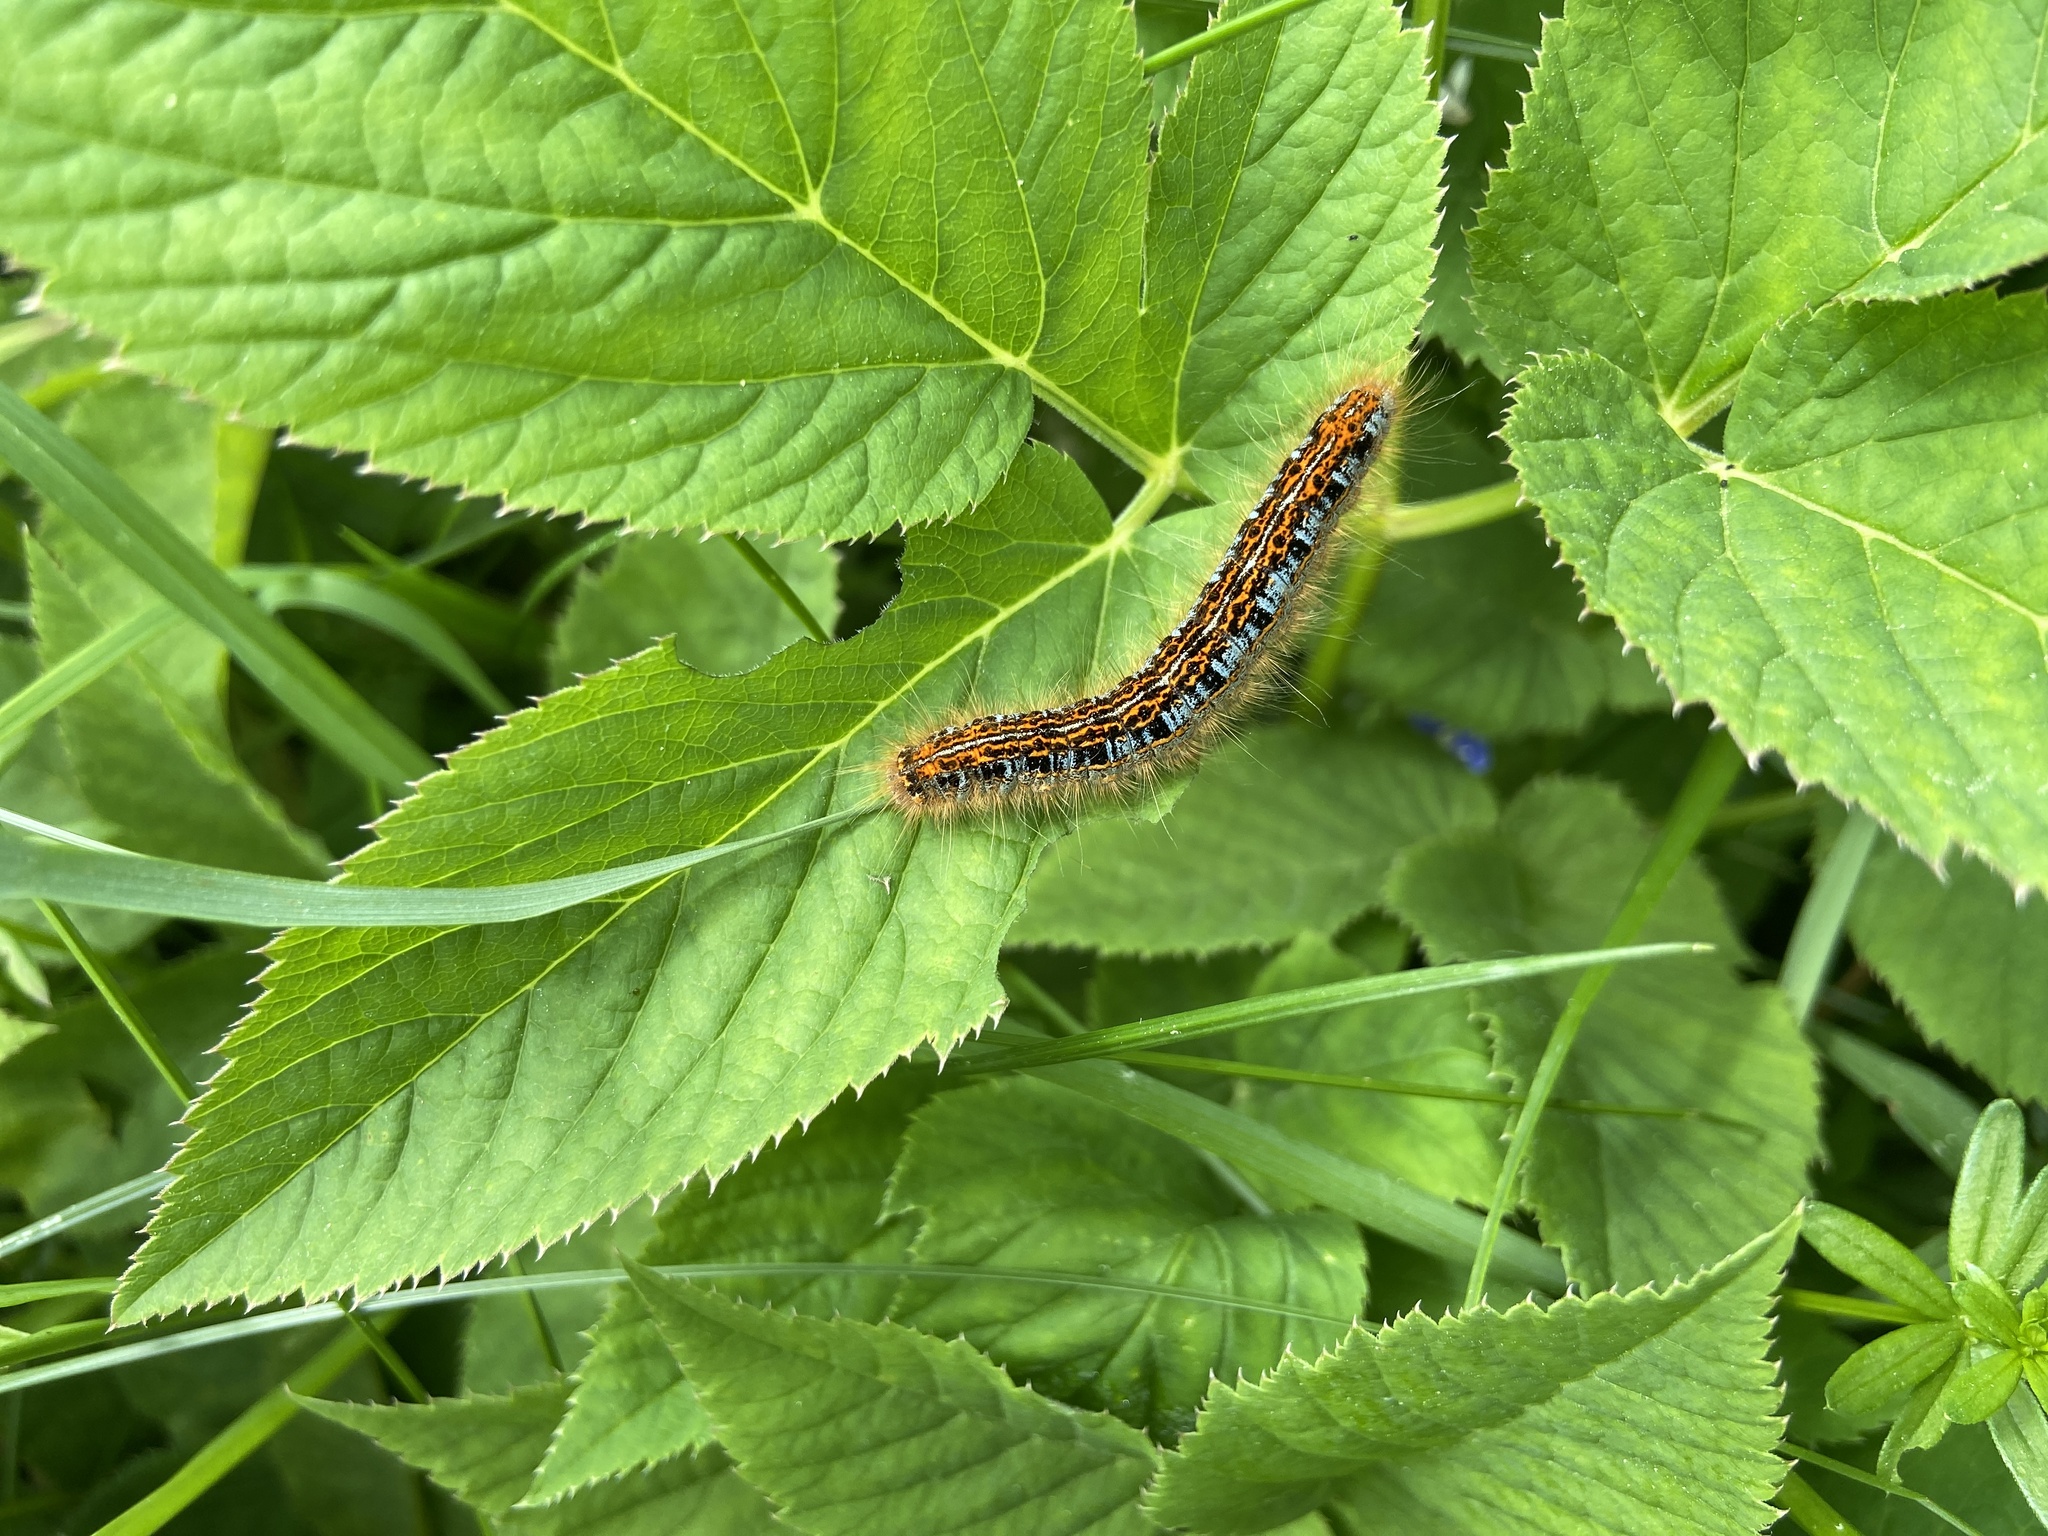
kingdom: Animalia
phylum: Arthropoda
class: Insecta
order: Lepidoptera
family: Lasiocampidae
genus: Malacosoma
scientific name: Malacosoma castrense
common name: Ground lackey
